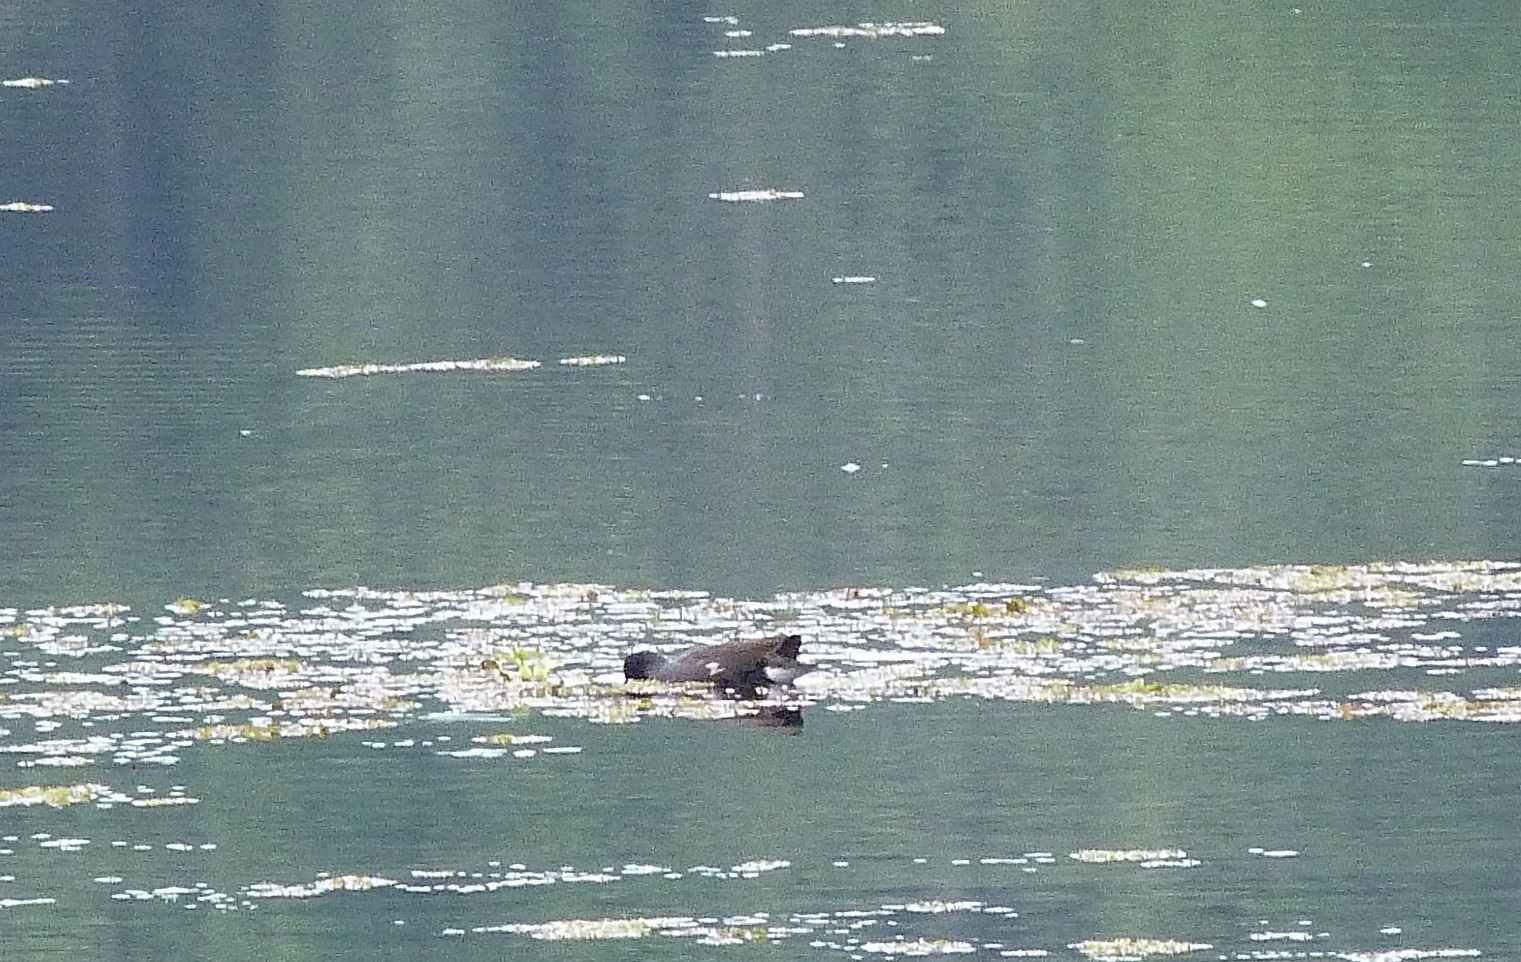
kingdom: Animalia
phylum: Chordata
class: Aves
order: Gruiformes
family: Rallidae
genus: Gallinula
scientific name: Gallinula chloropus
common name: Common moorhen
